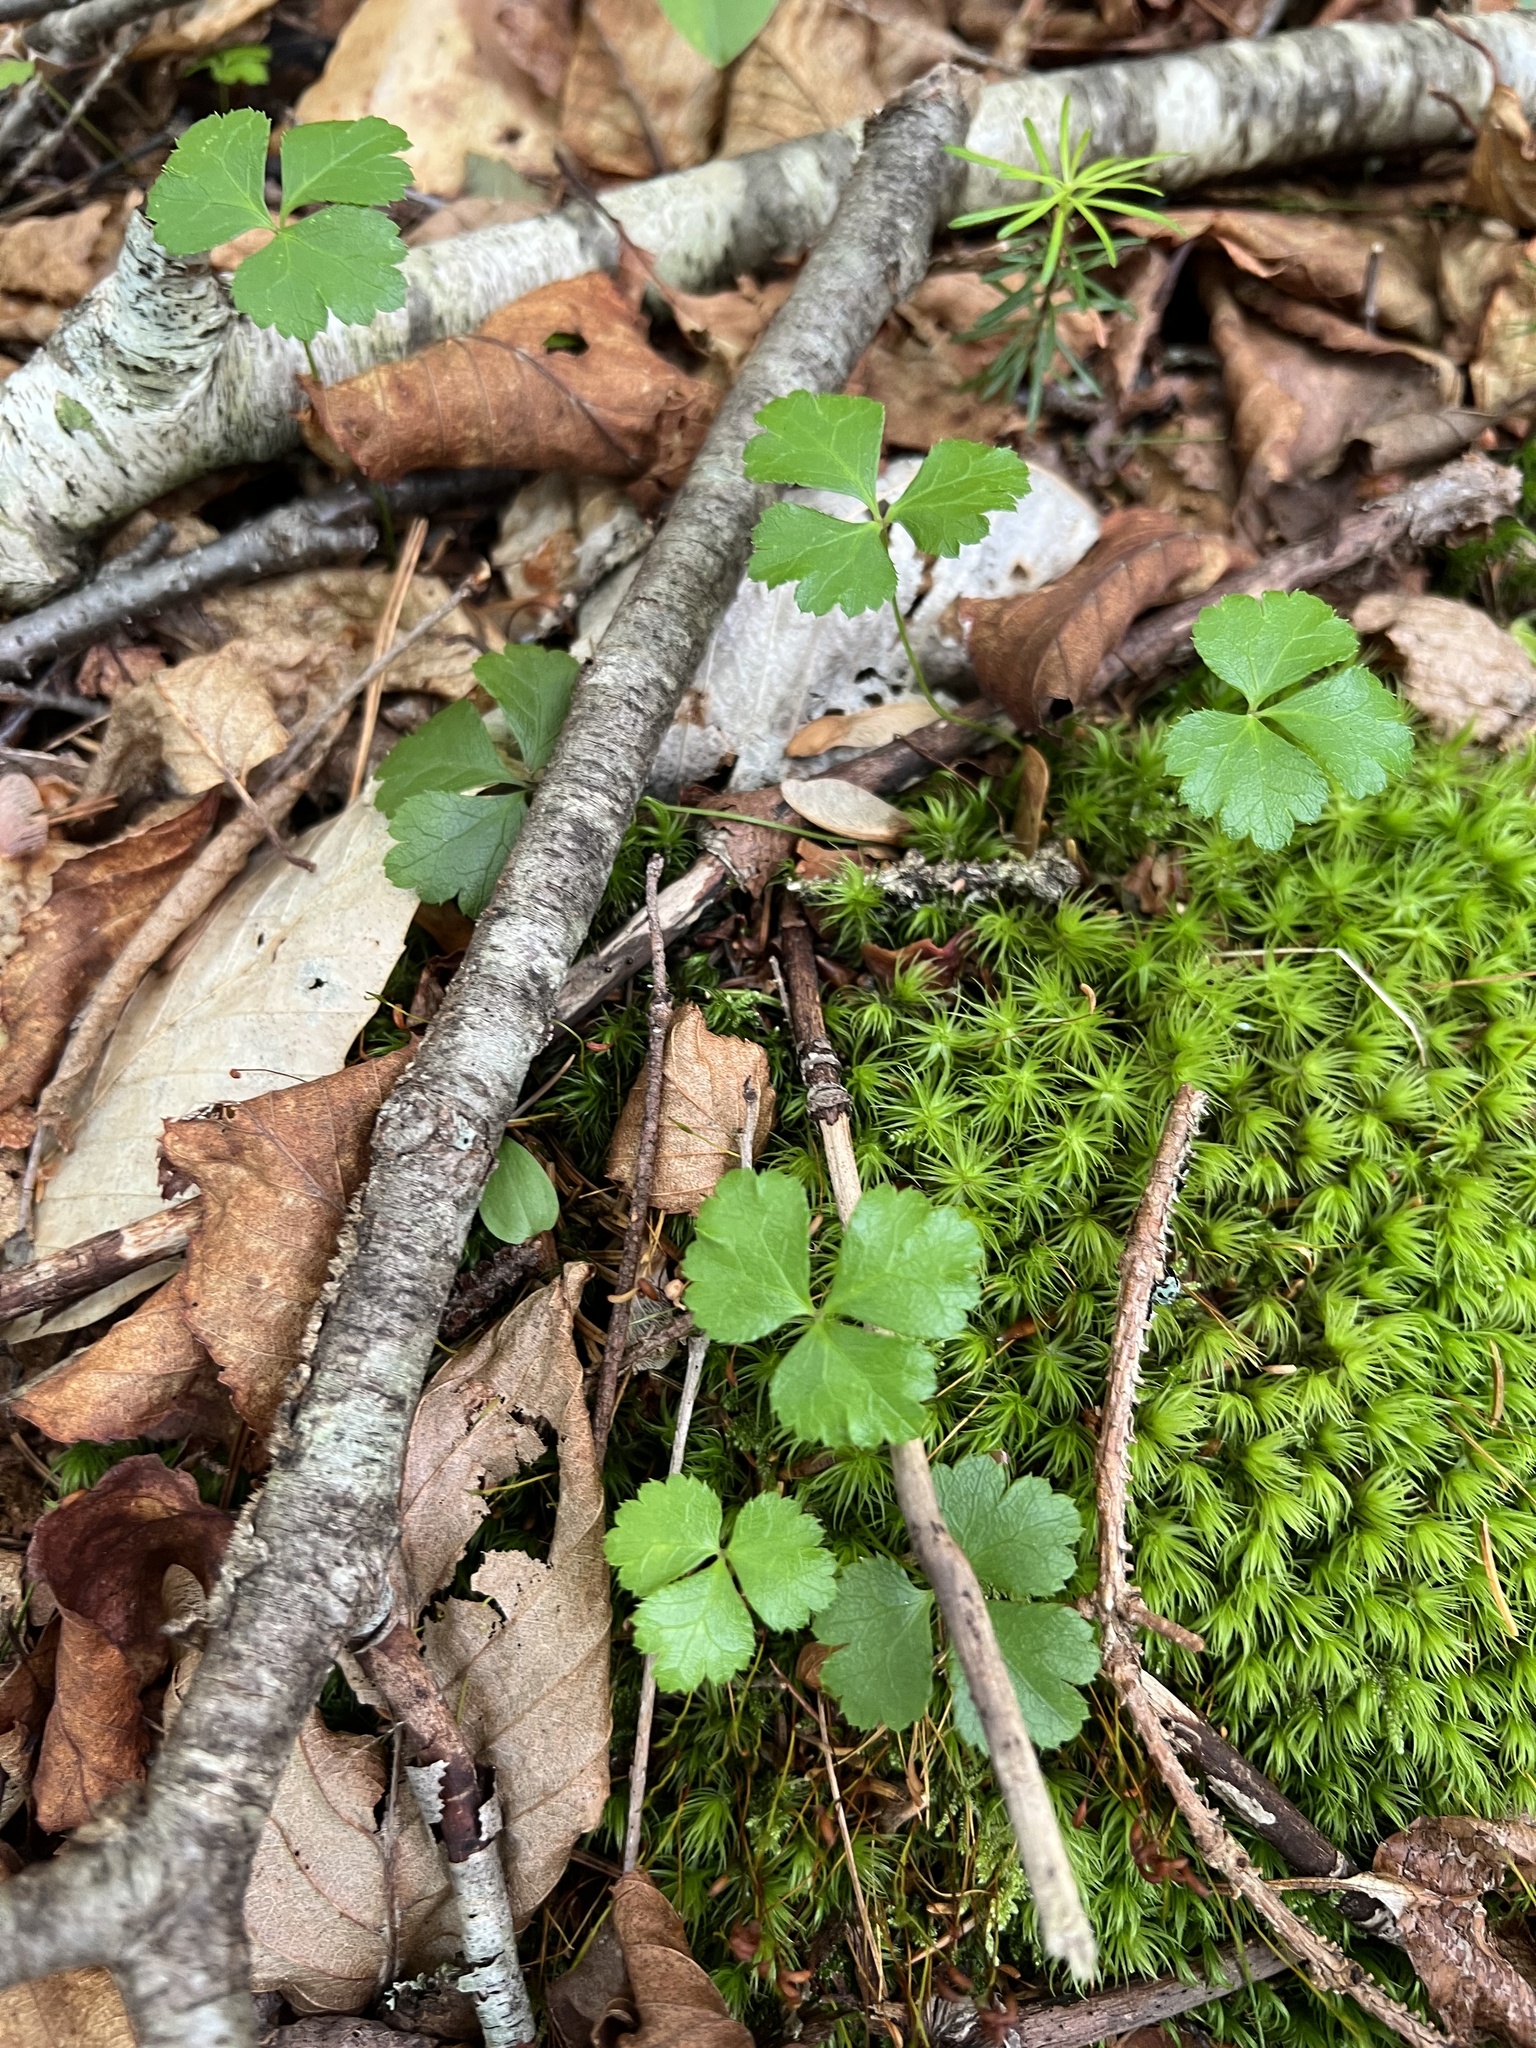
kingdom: Plantae
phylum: Tracheophyta
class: Magnoliopsida
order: Ranunculales
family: Ranunculaceae
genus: Coptis
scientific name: Coptis trifolia
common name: Canker-root
